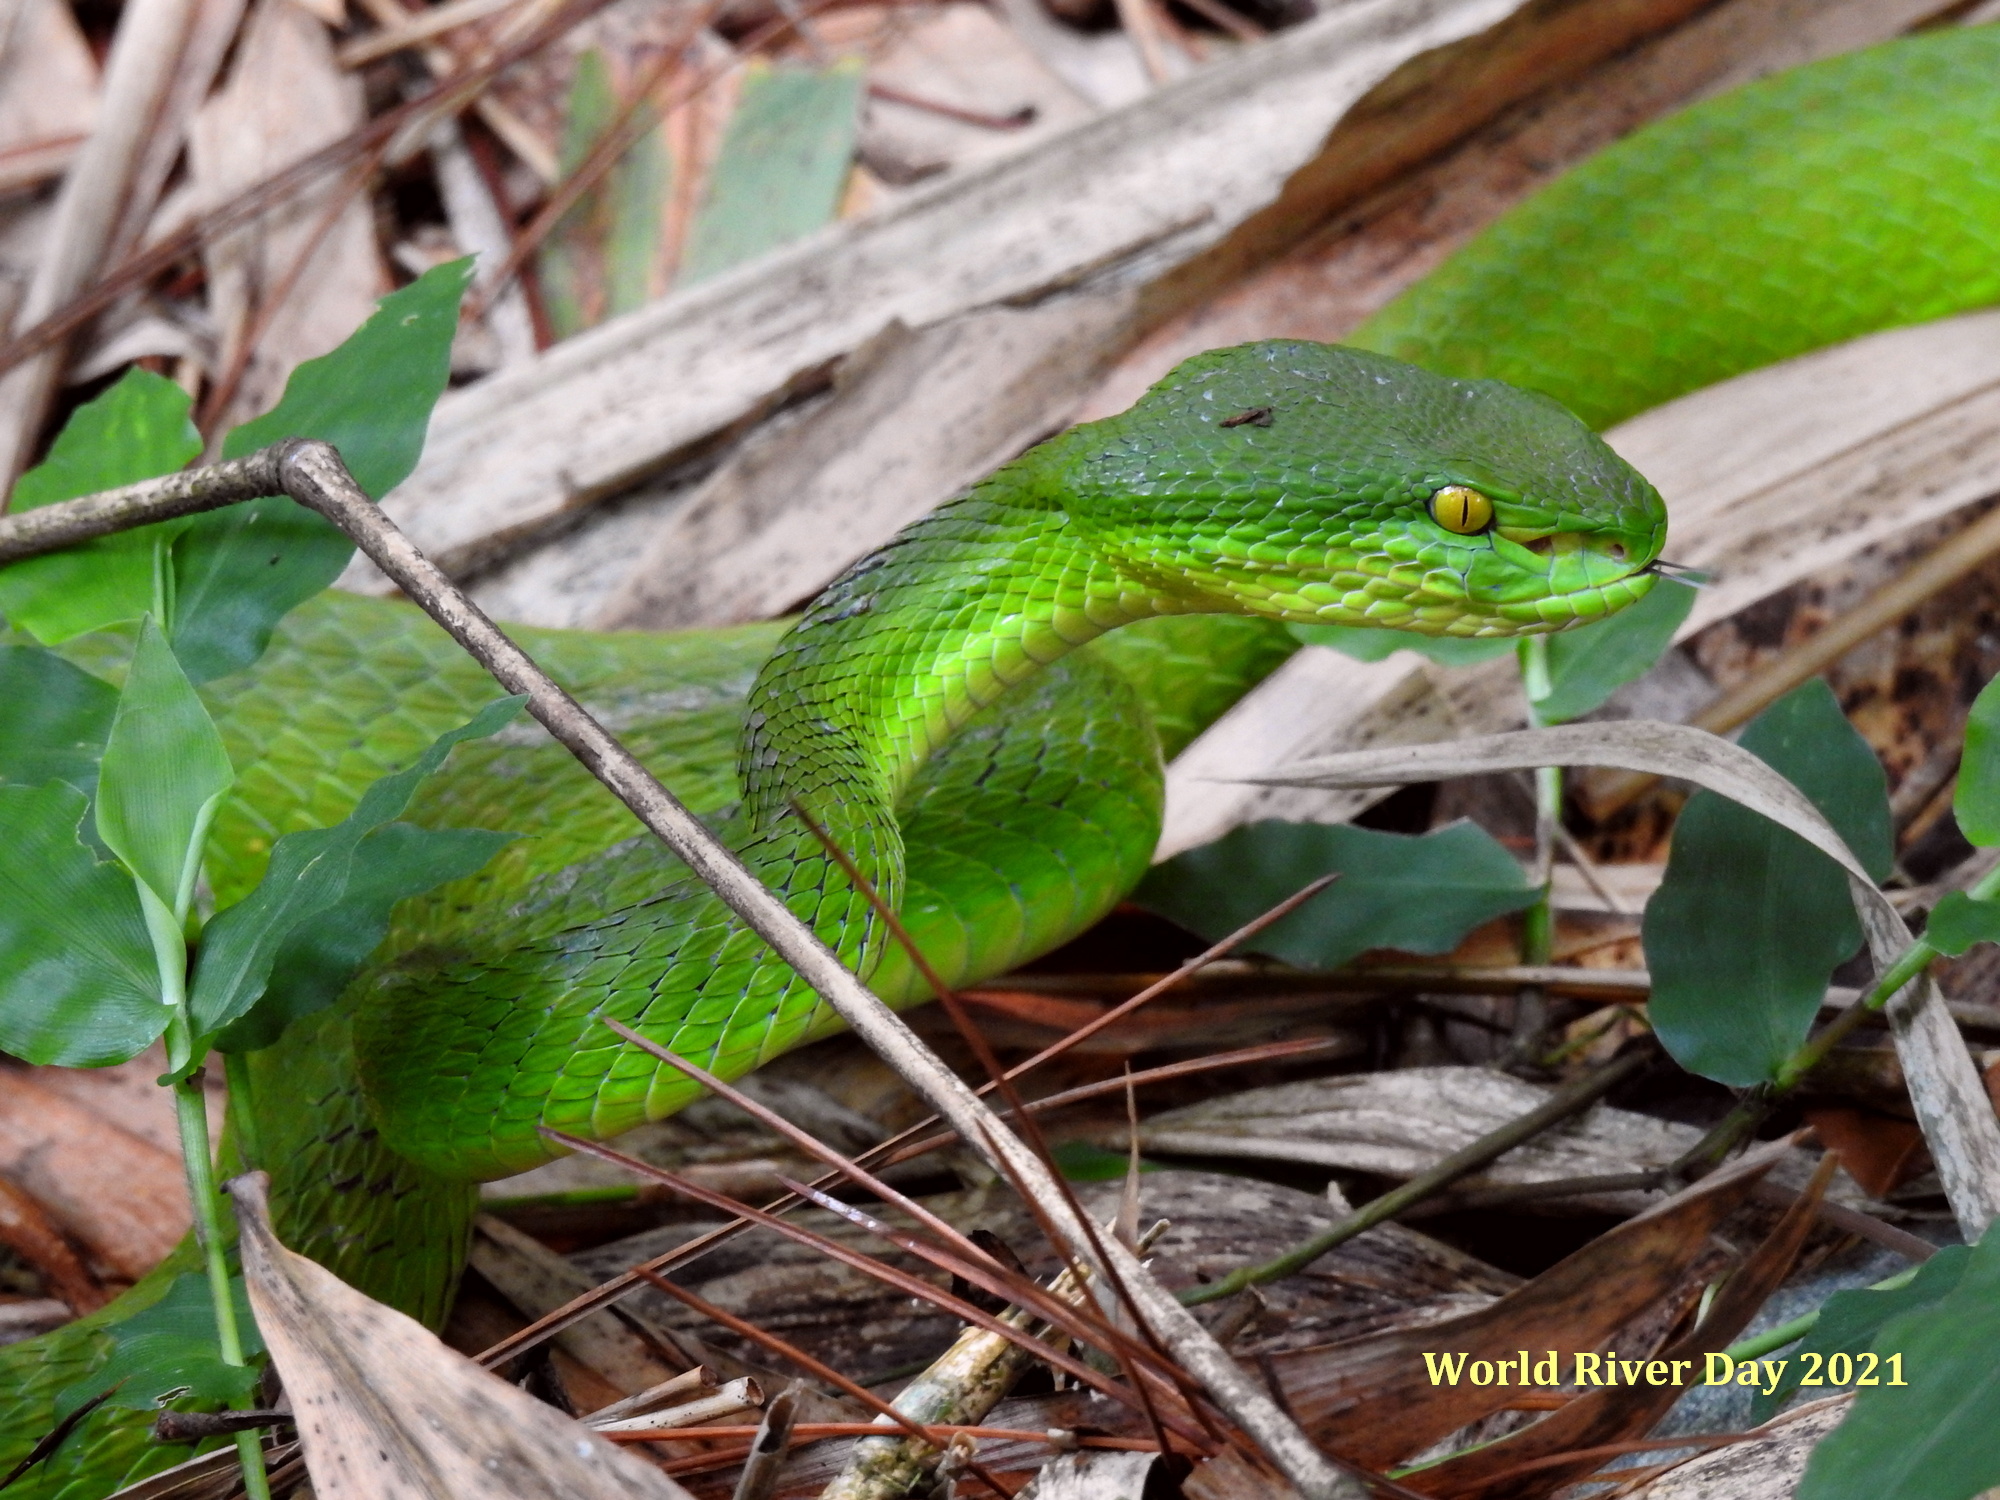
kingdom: Animalia
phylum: Chordata
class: Squamata
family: Viperidae
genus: Trimeresurus
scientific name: Trimeresurus albolabris
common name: White-lipped pitviper
